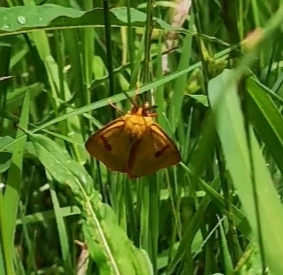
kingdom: Animalia
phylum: Arthropoda
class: Insecta
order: Lepidoptera
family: Erebidae
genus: Diacrisia
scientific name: Diacrisia sannio
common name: Clouded buff
